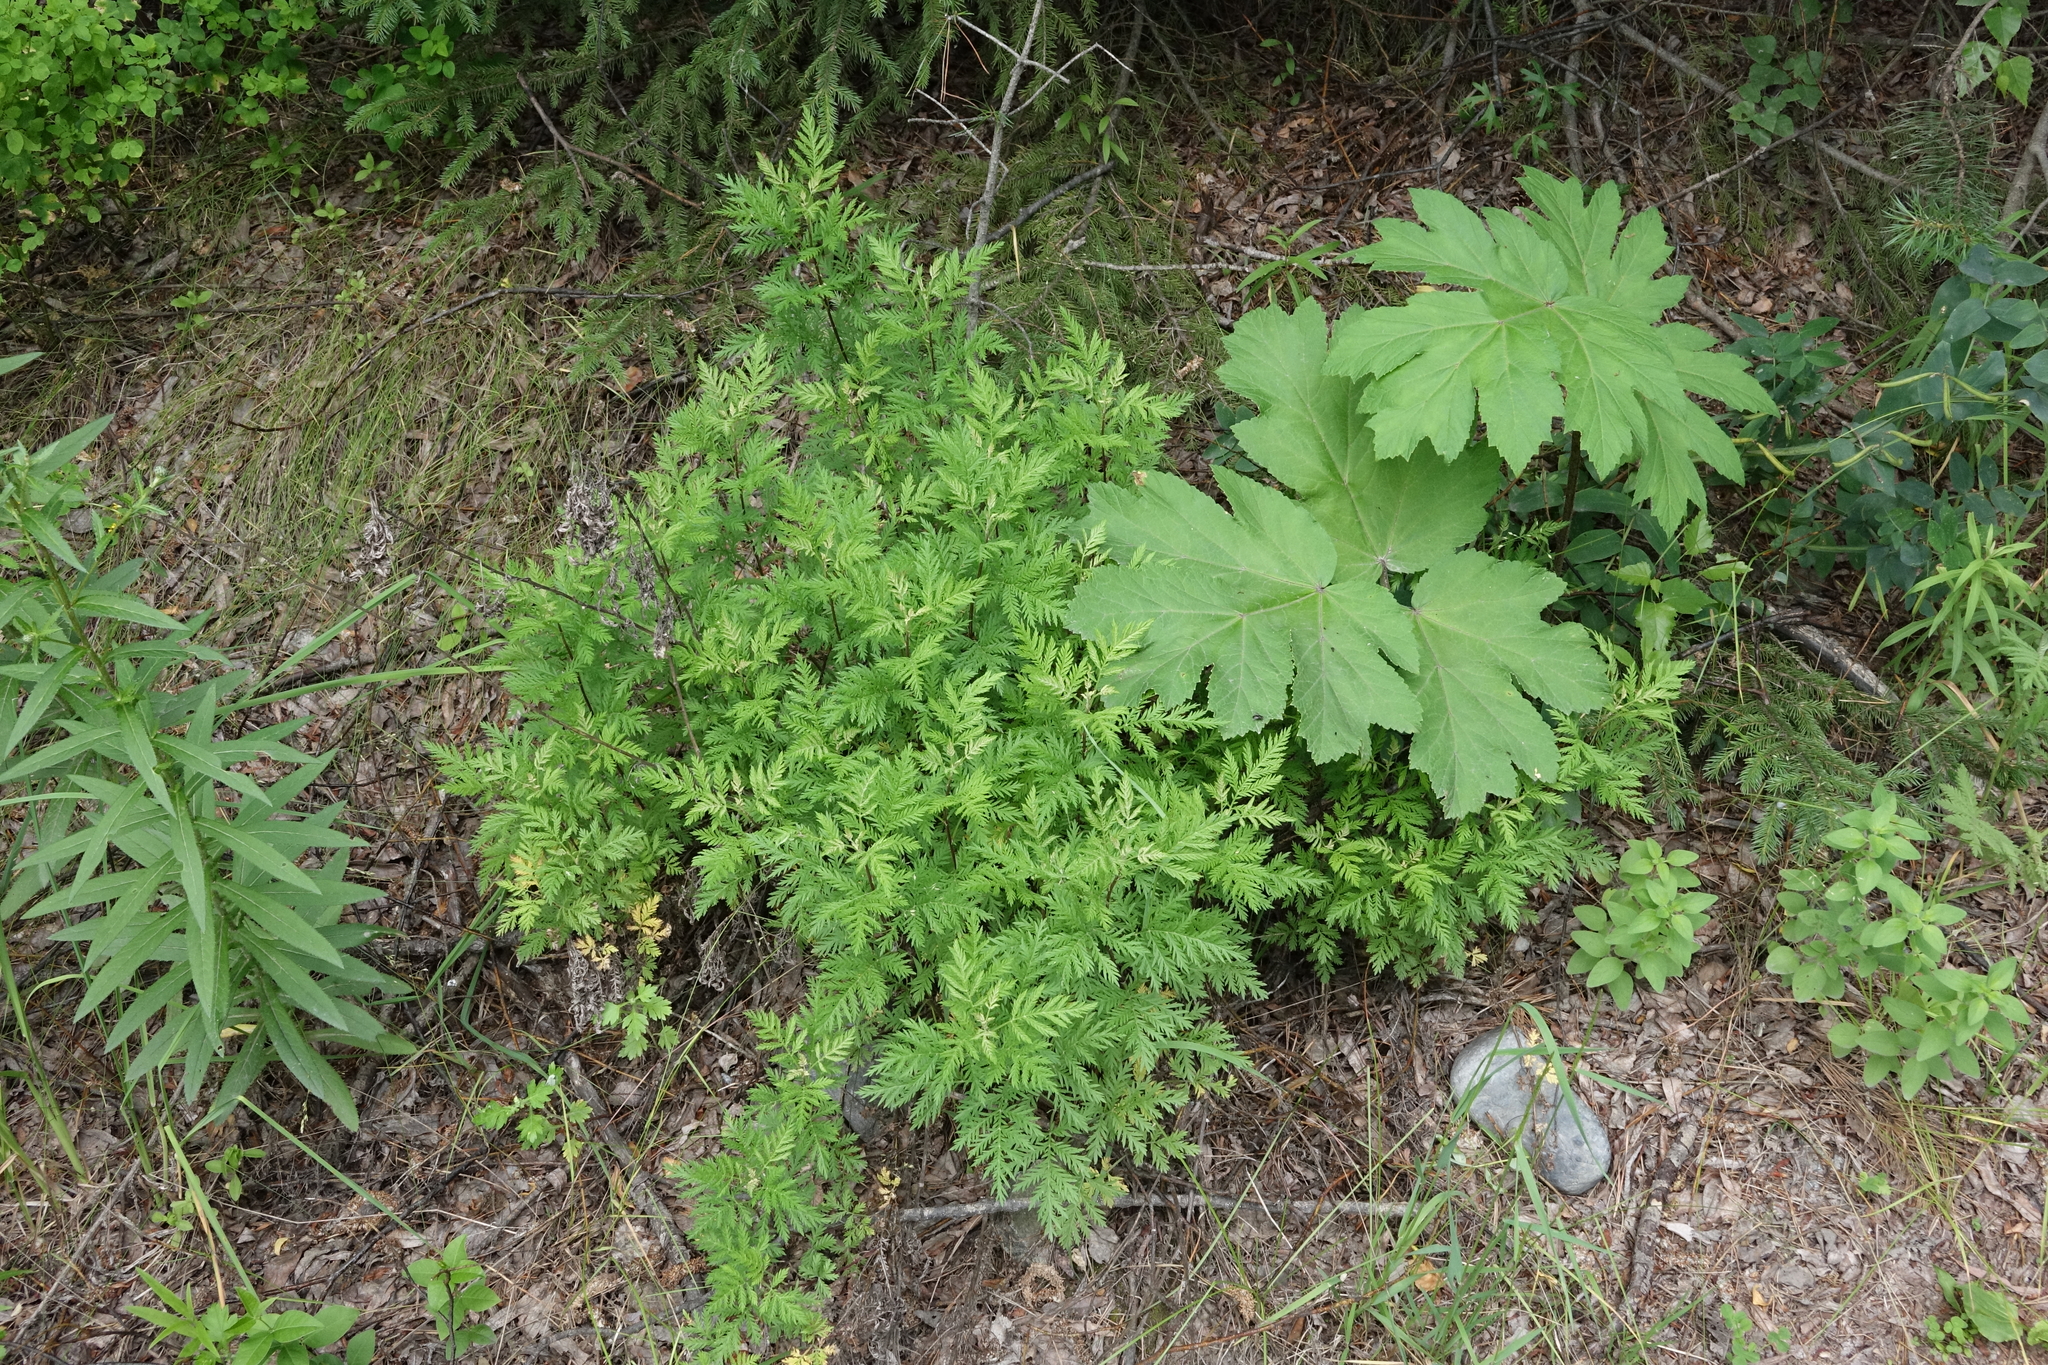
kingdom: Plantae
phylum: Tracheophyta
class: Magnoliopsida
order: Asterales
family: Asteraceae
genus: Artemisia
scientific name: Artemisia gmelinii
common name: Gmelin's wormwood
